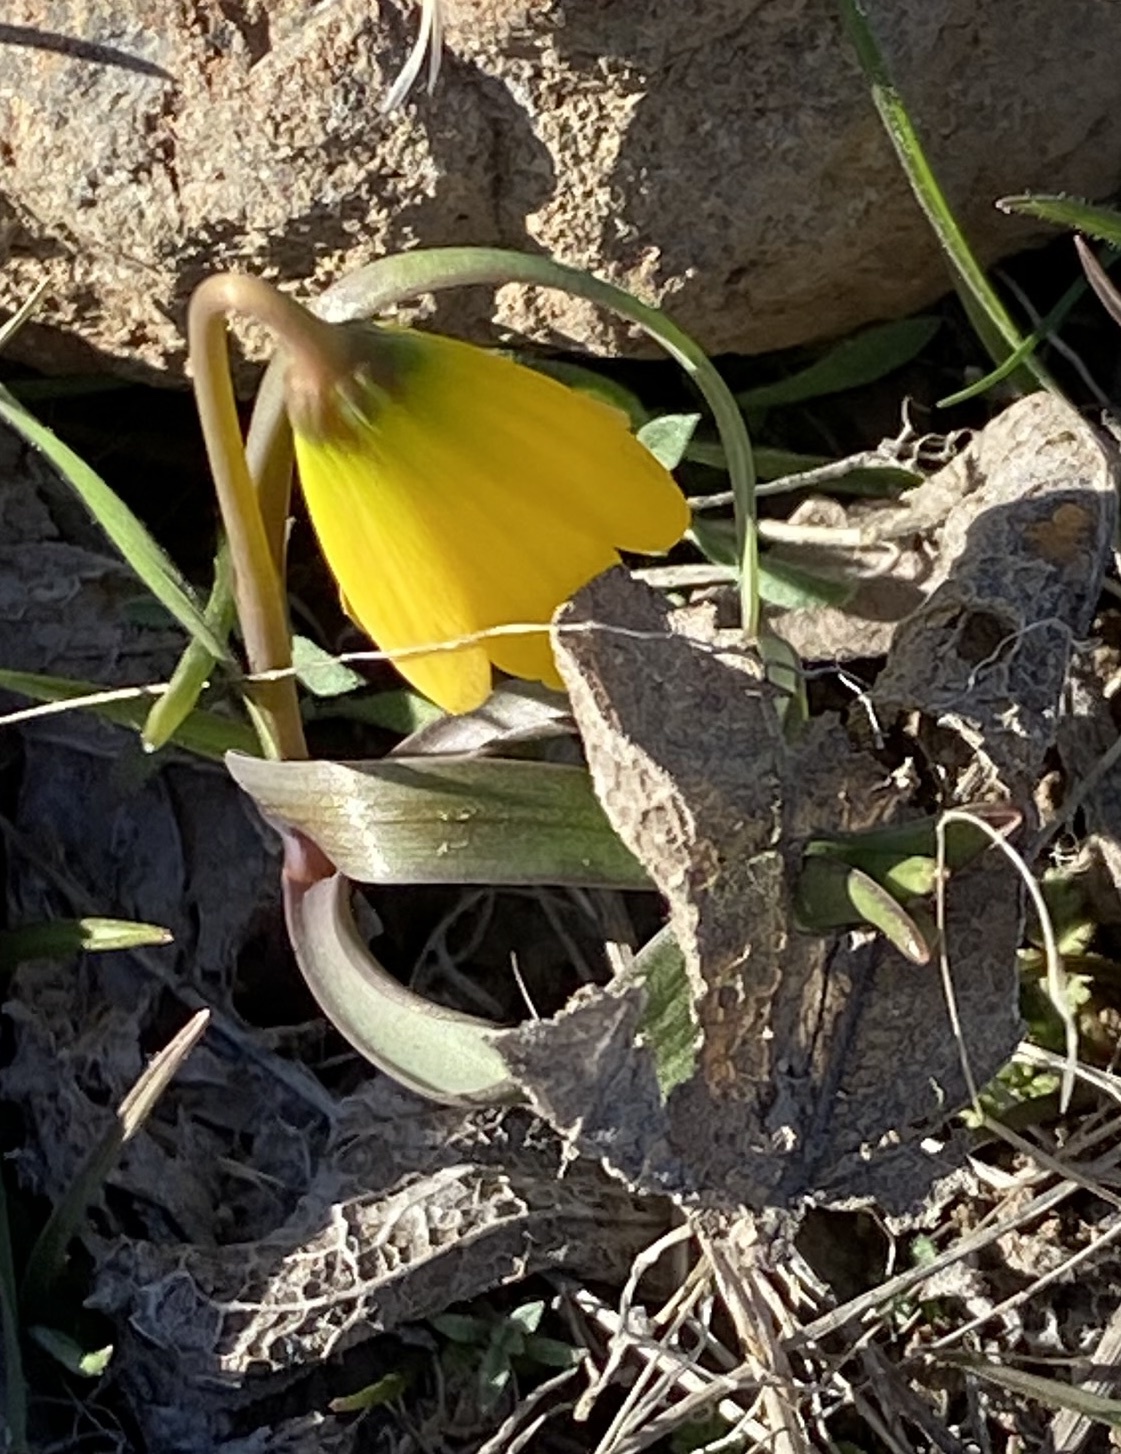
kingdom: Plantae
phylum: Tracheophyta
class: Liliopsida
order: Liliales
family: Liliaceae
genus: Fritillaria
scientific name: Fritillaria pudica
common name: Yellow fritillary
